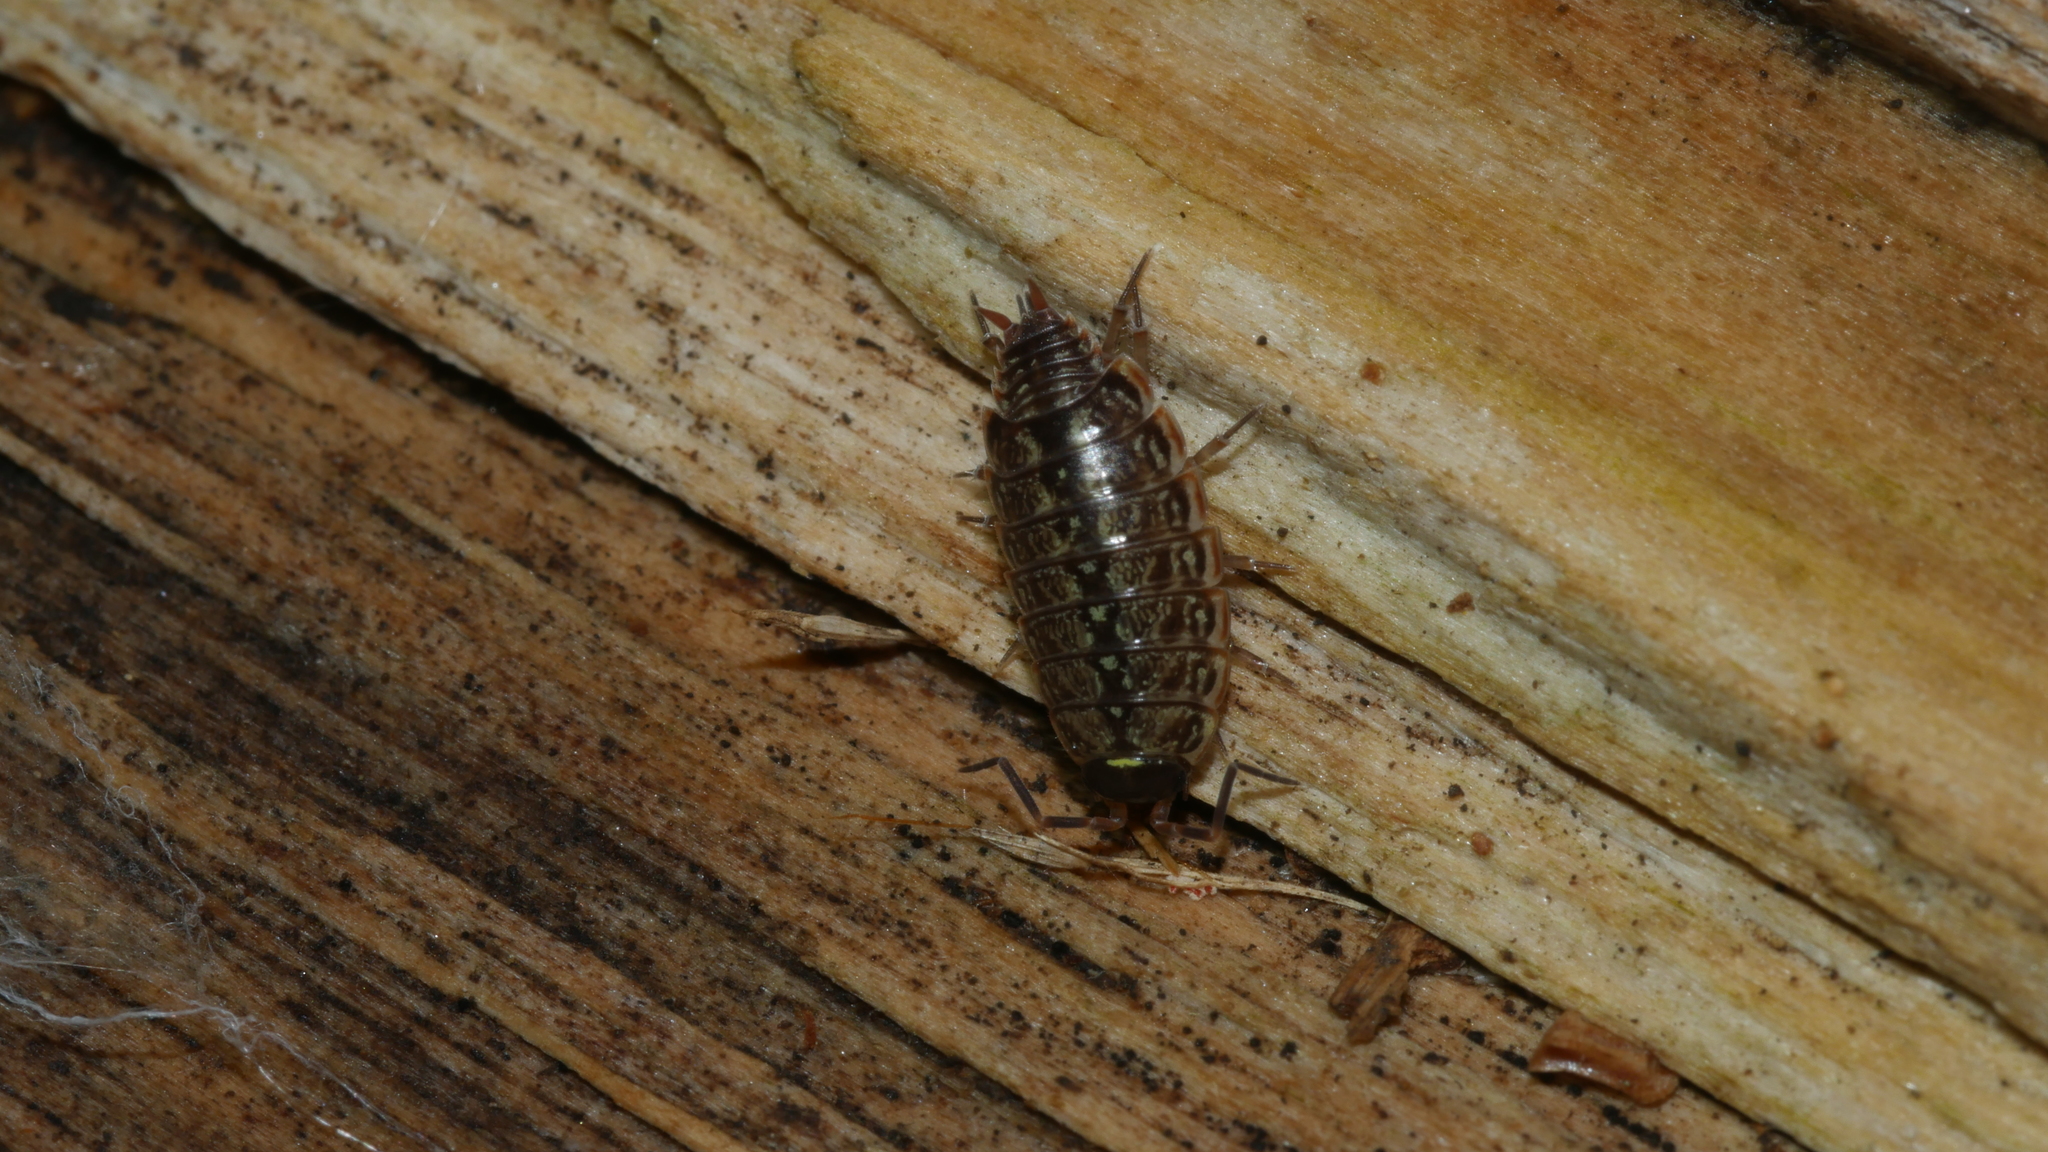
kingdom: Animalia
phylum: Arthropoda
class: Malacostraca
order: Isopoda
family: Philosciidae
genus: Philoscia
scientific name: Philoscia muscorum
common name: Common striped woodlouse
